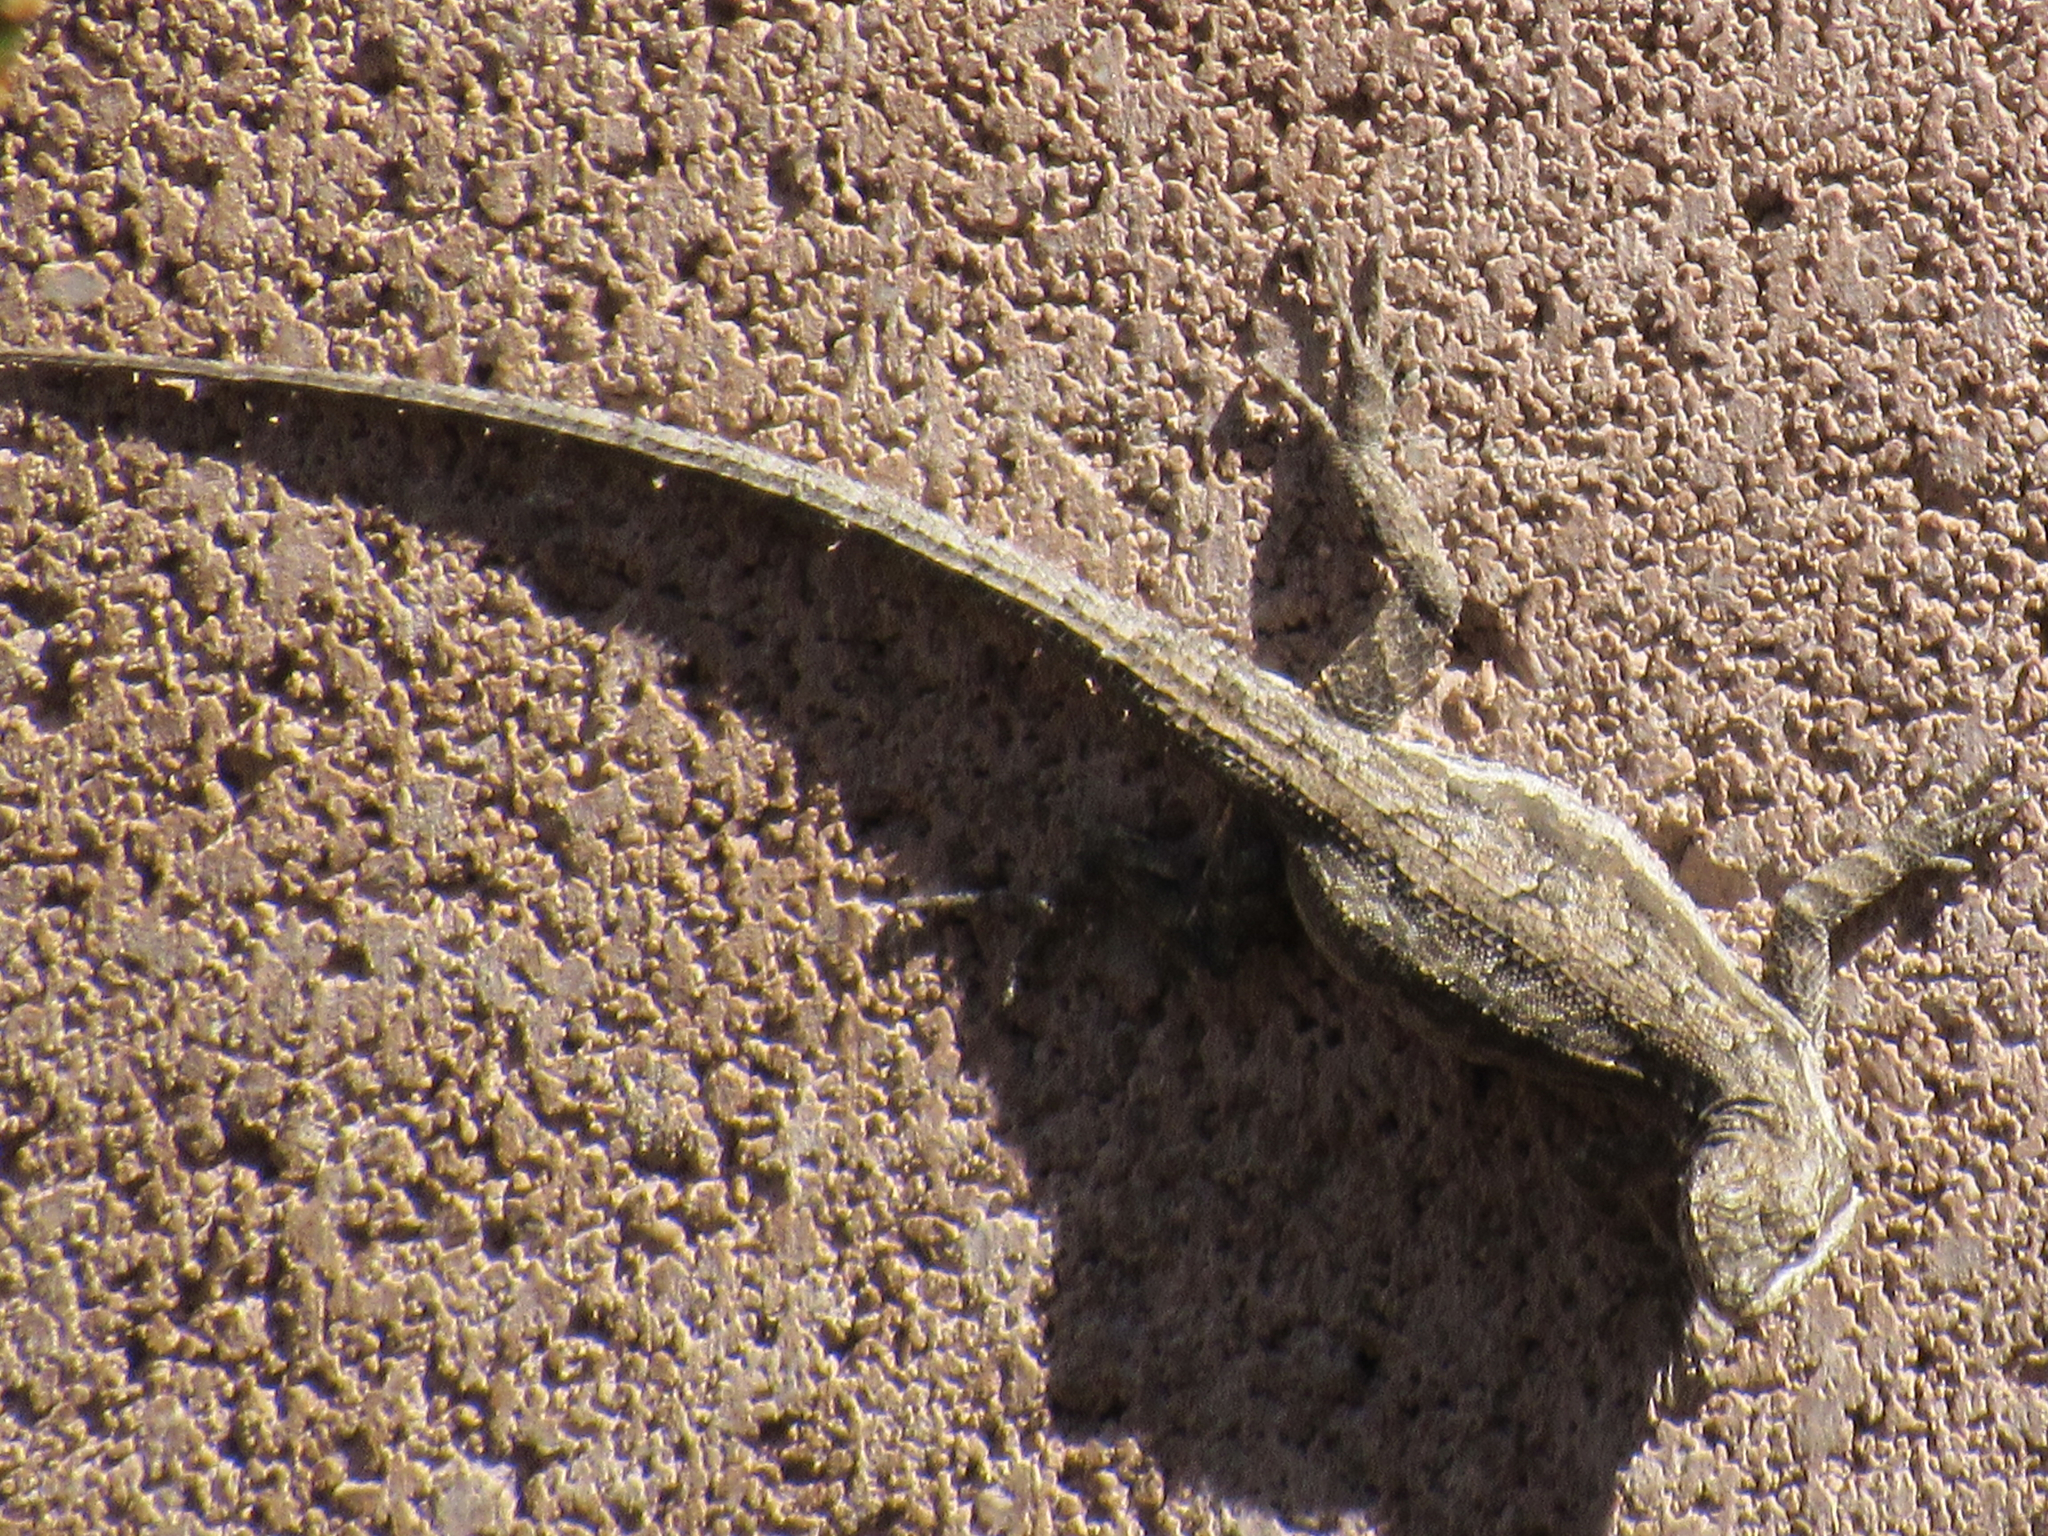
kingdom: Animalia
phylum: Chordata
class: Squamata
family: Phrynosomatidae
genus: Urosaurus
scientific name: Urosaurus ornatus
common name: Ornate tree lizard
